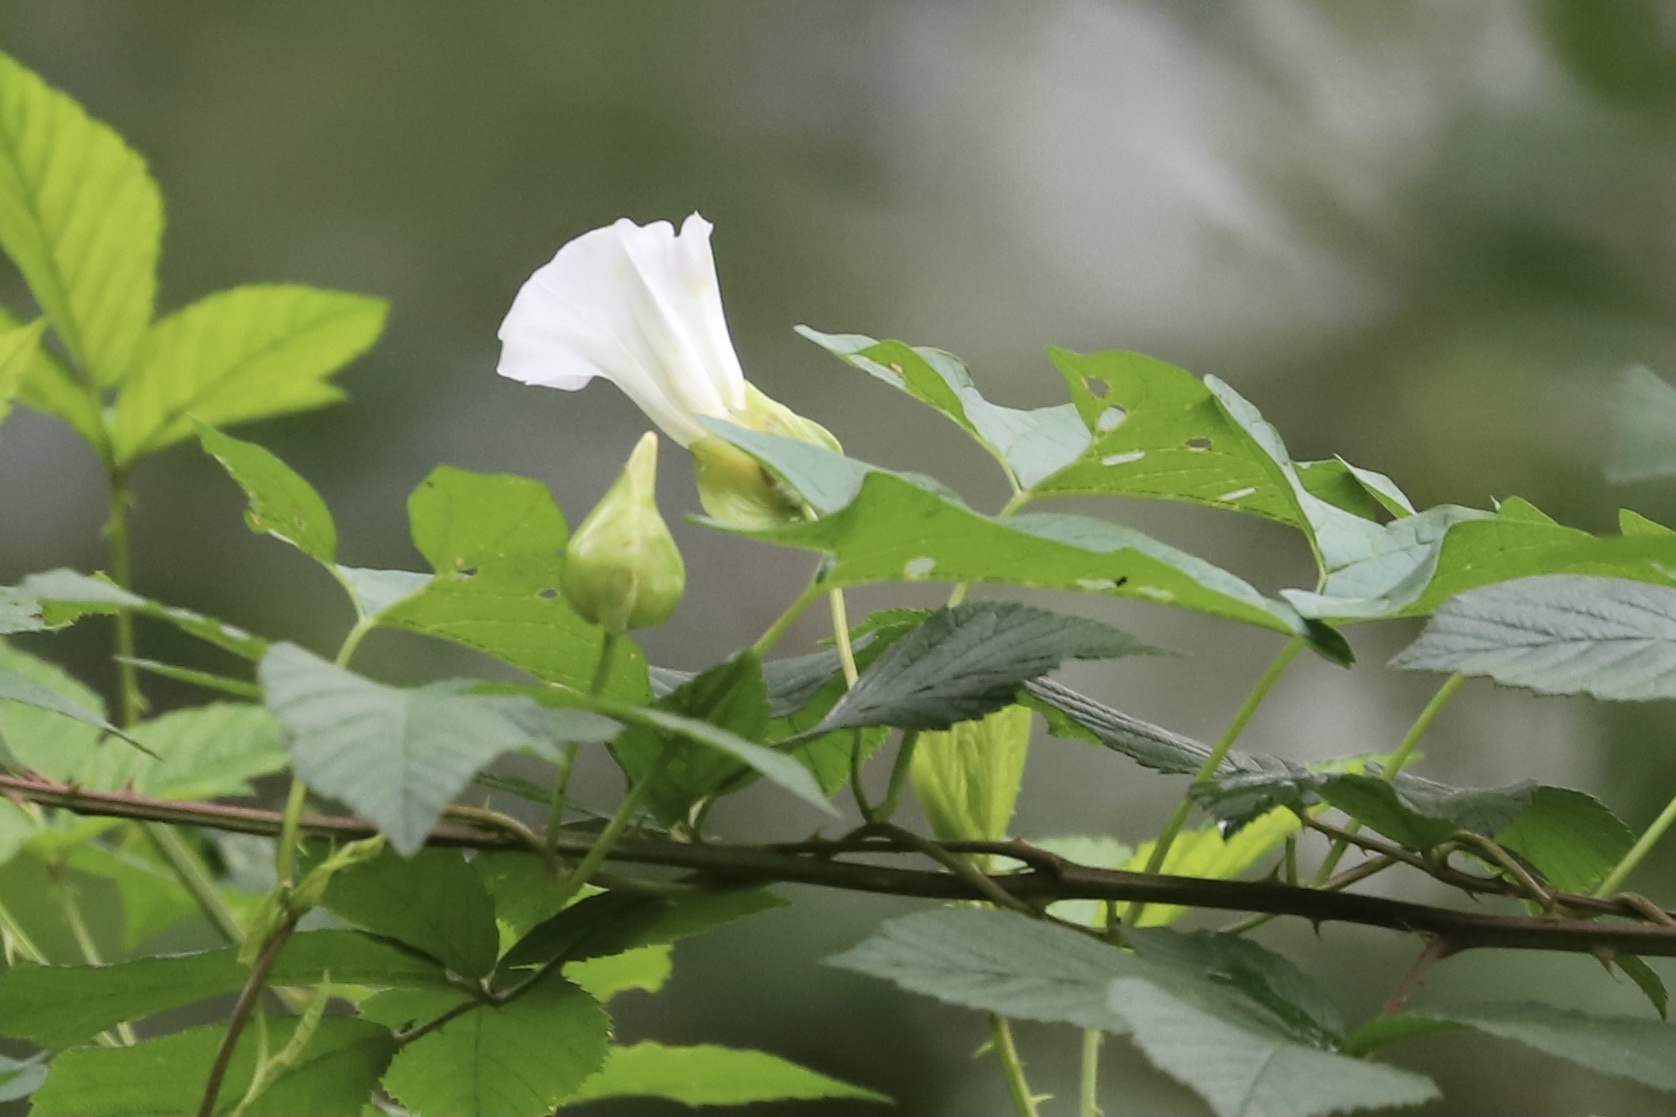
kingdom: Plantae
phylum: Tracheophyta
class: Magnoliopsida
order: Solanales
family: Convolvulaceae
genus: Calystegia
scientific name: Calystegia sepium
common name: Hedge bindweed
